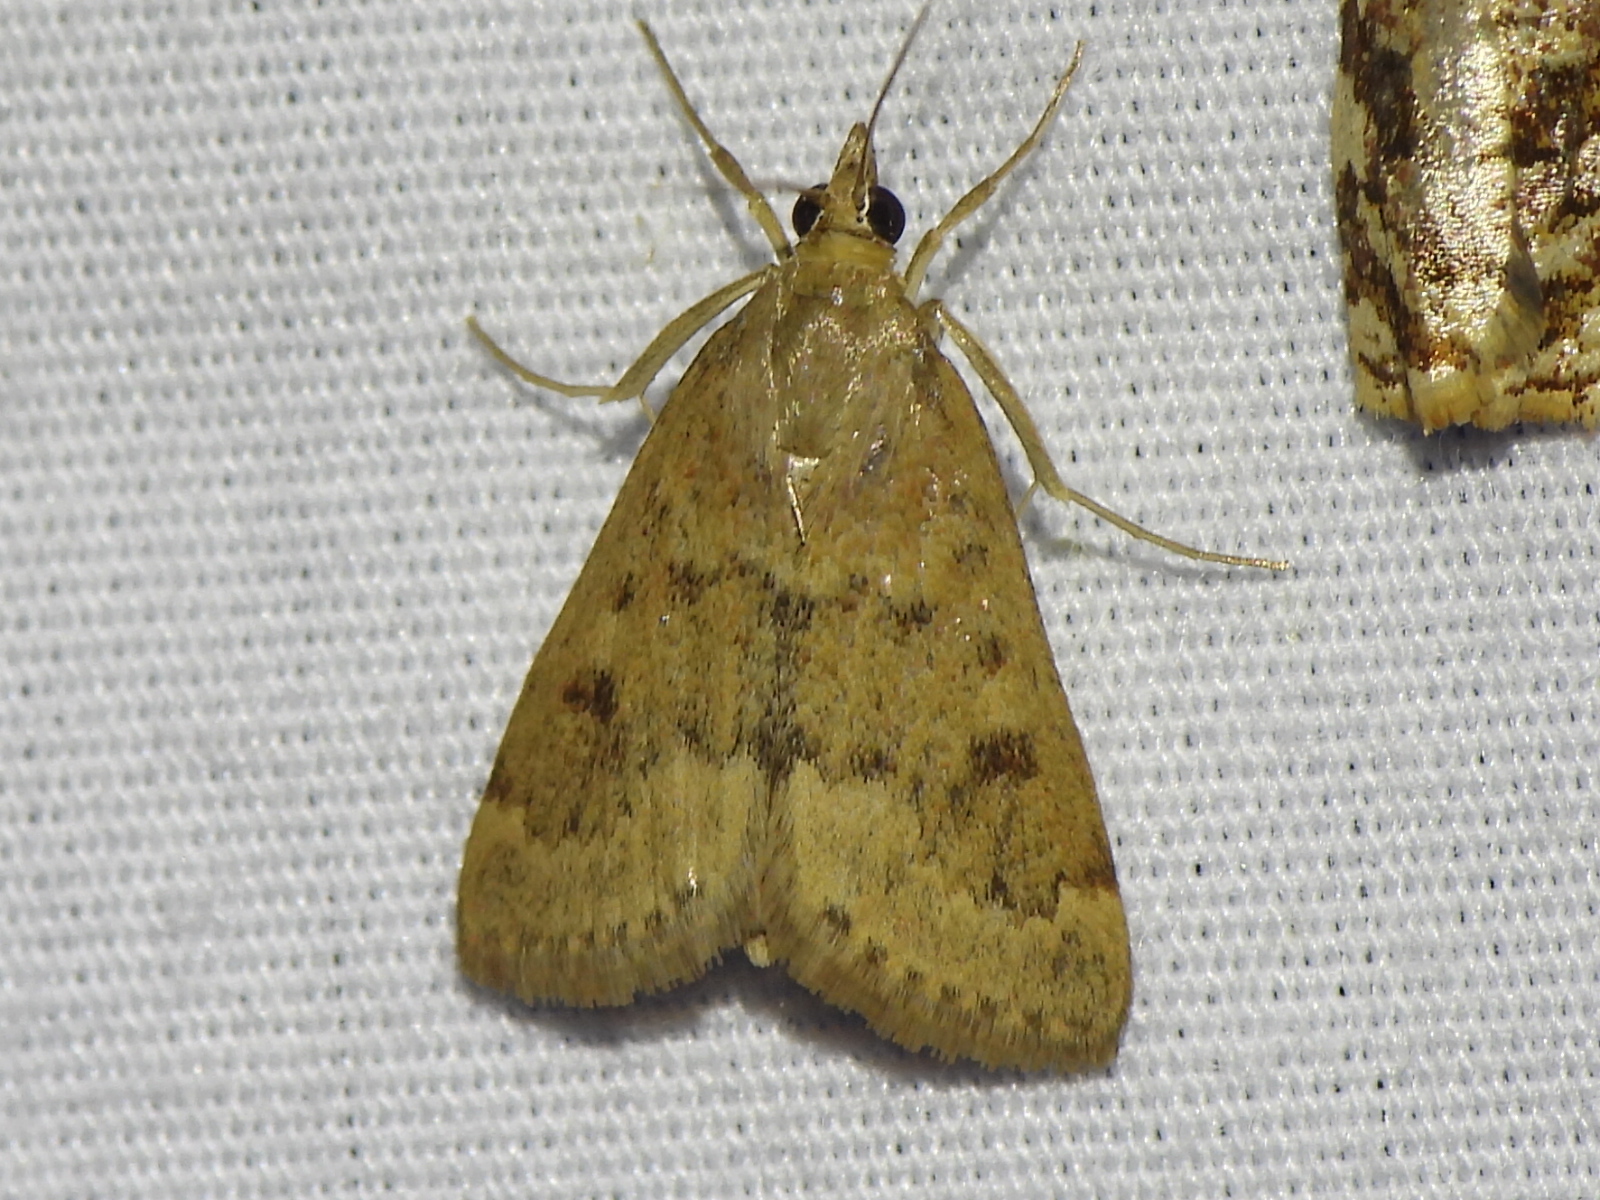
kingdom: Animalia
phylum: Arthropoda
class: Insecta
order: Lepidoptera
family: Crambidae
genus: Achyra
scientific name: Achyra rantalis
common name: Garden webworm
